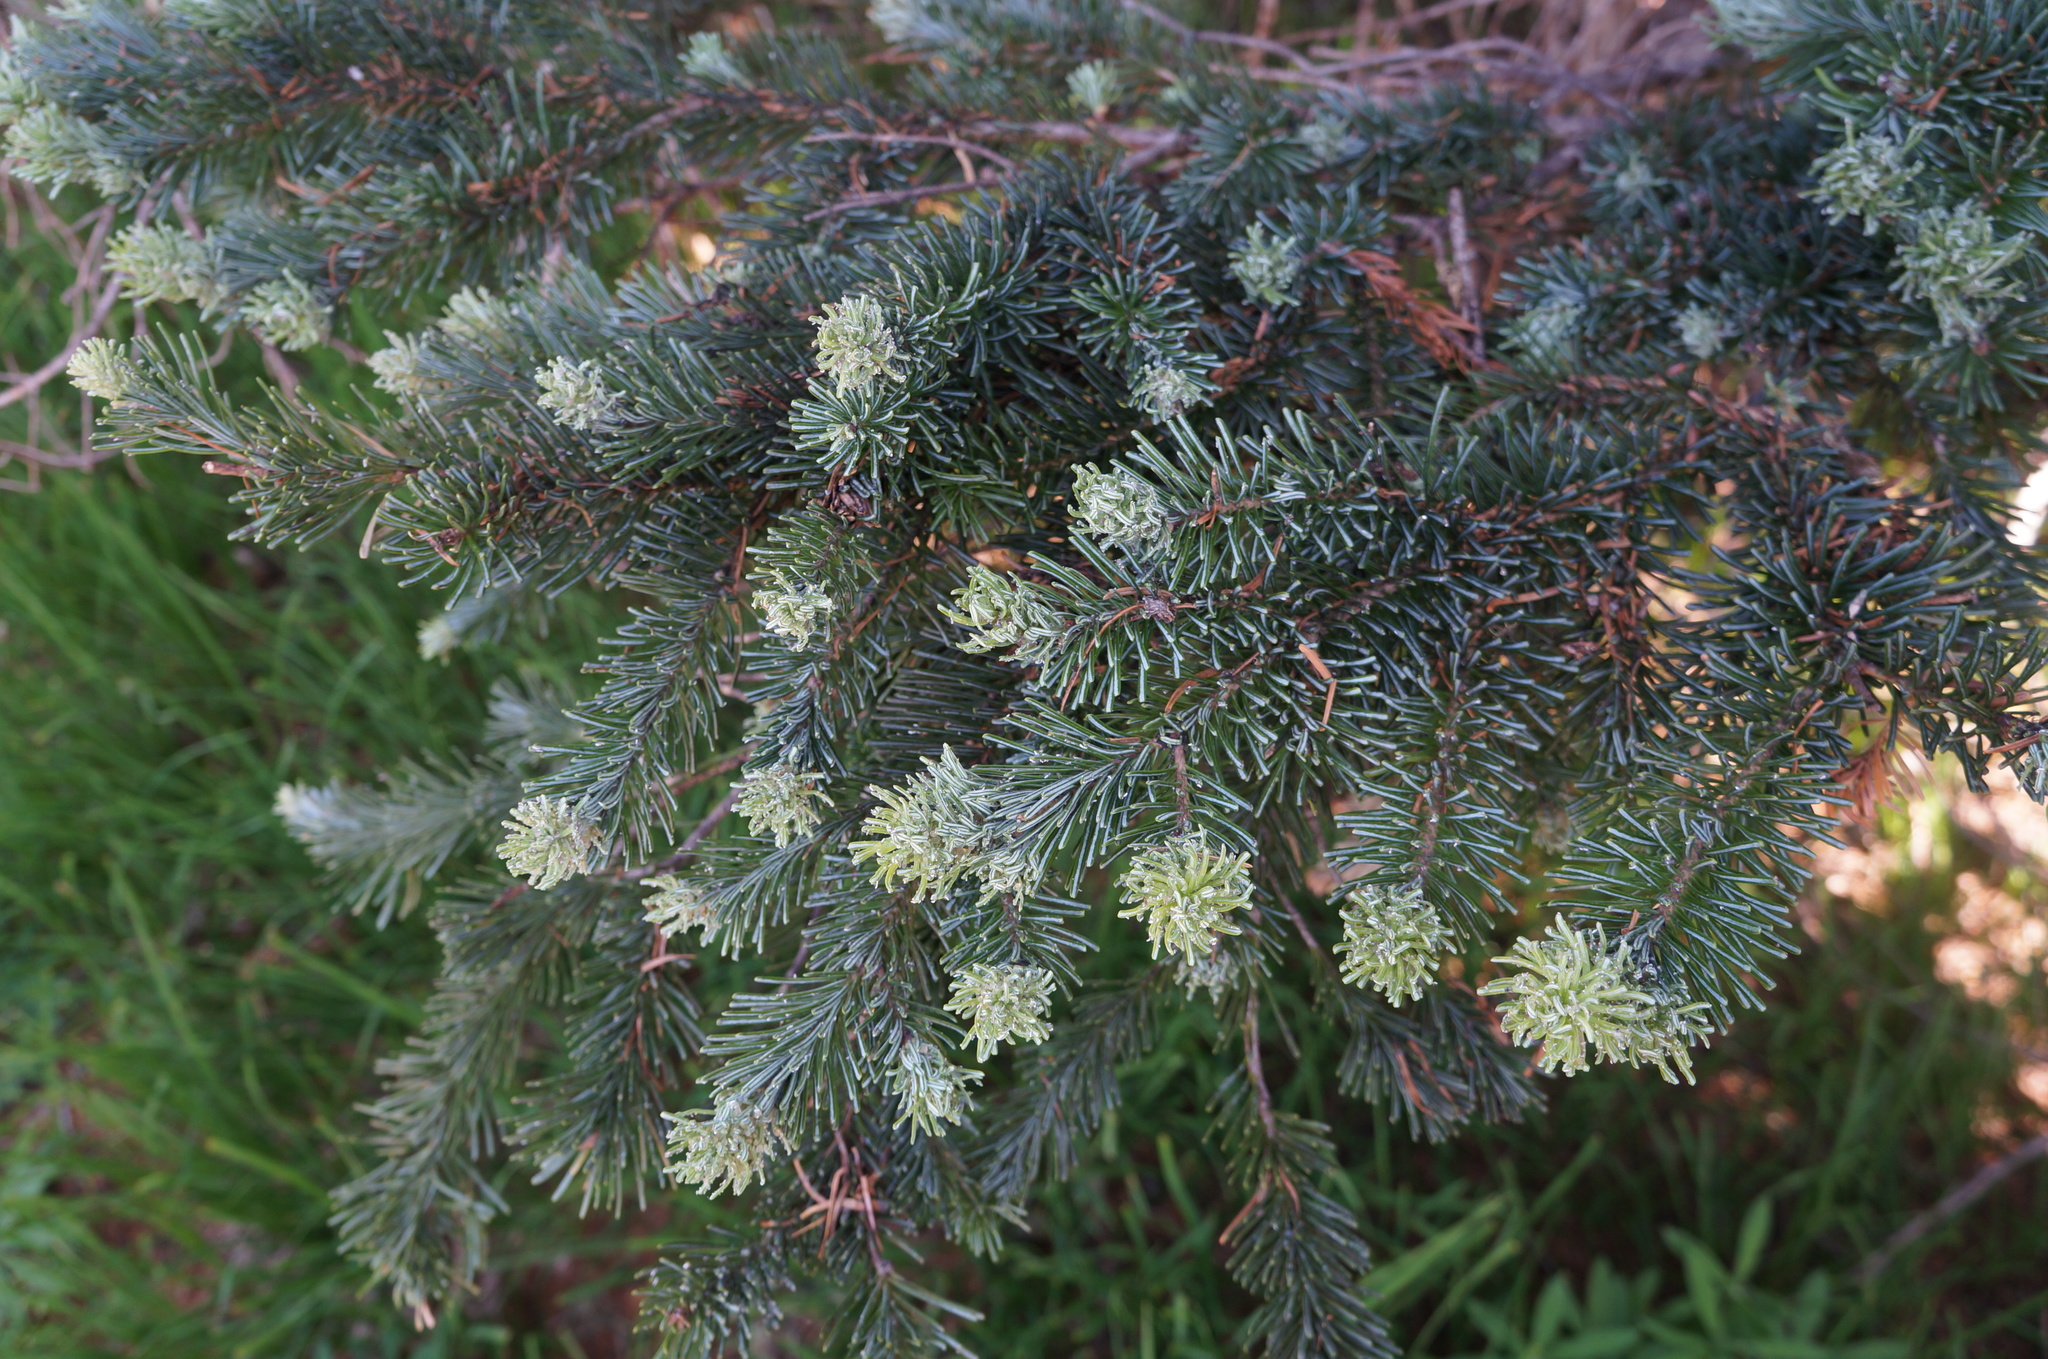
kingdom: Plantae
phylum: Tracheophyta
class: Pinopsida
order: Pinales
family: Pinaceae
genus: Abies
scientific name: Abies lasiocarpa
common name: Subalpine fir
